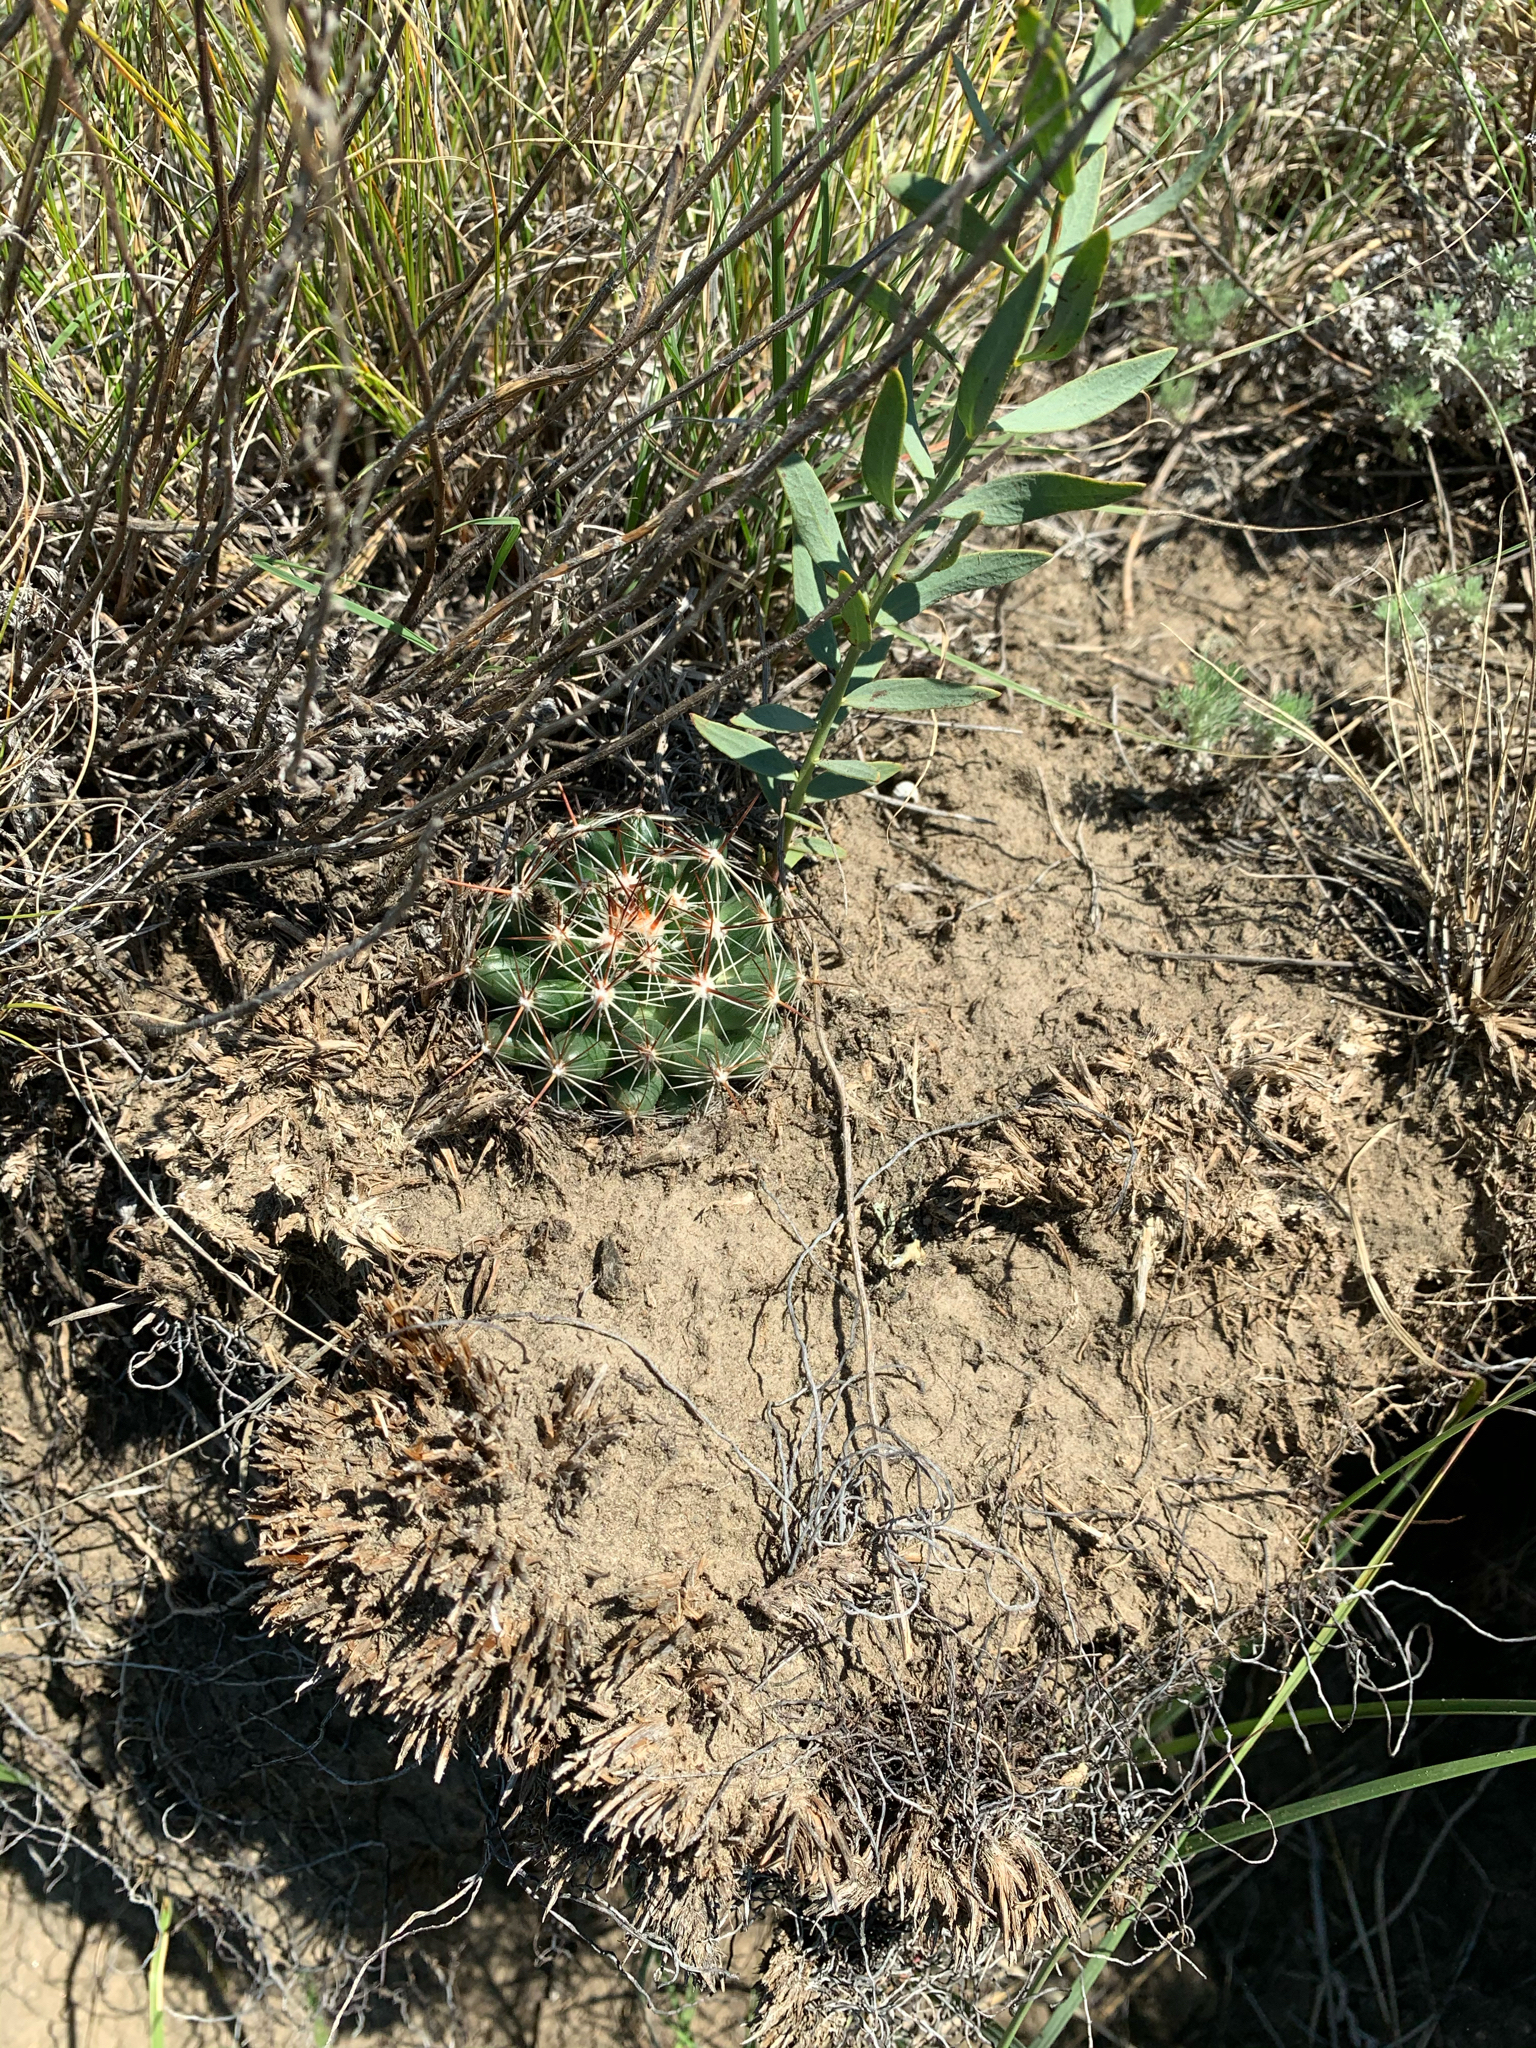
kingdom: Plantae
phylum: Tracheophyta
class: Magnoliopsida
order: Caryophyllales
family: Cactaceae
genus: Pelecyphora
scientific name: Pelecyphora vivipara
